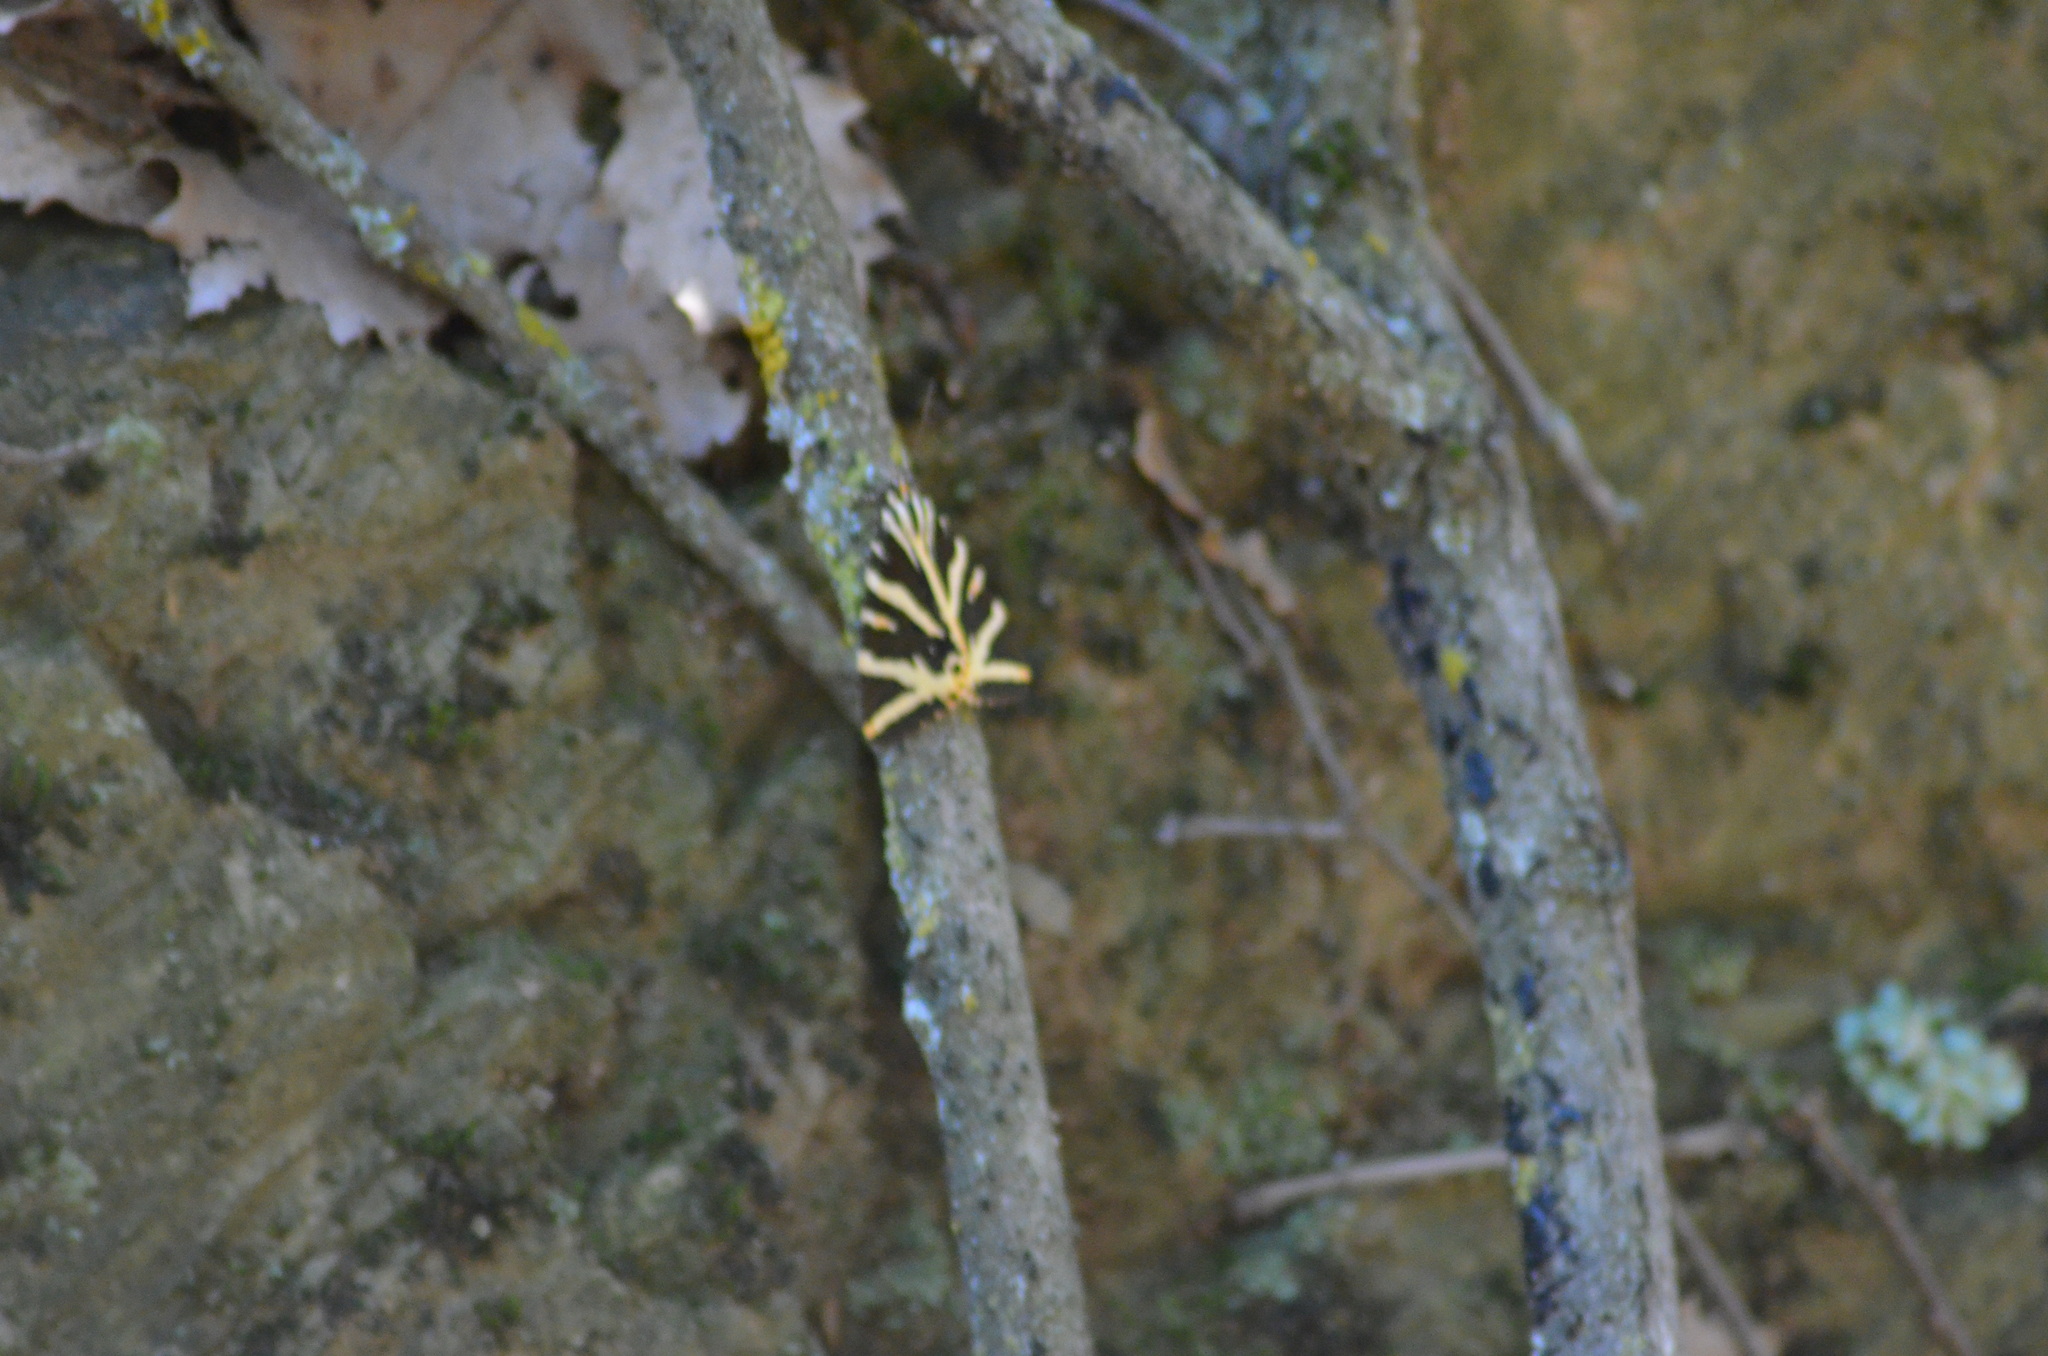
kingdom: Animalia
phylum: Arthropoda
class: Insecta
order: Lepidoptera
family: Erebidae
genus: Euplagia
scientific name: Euplagia quadripunctaria
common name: Jersey tiger
